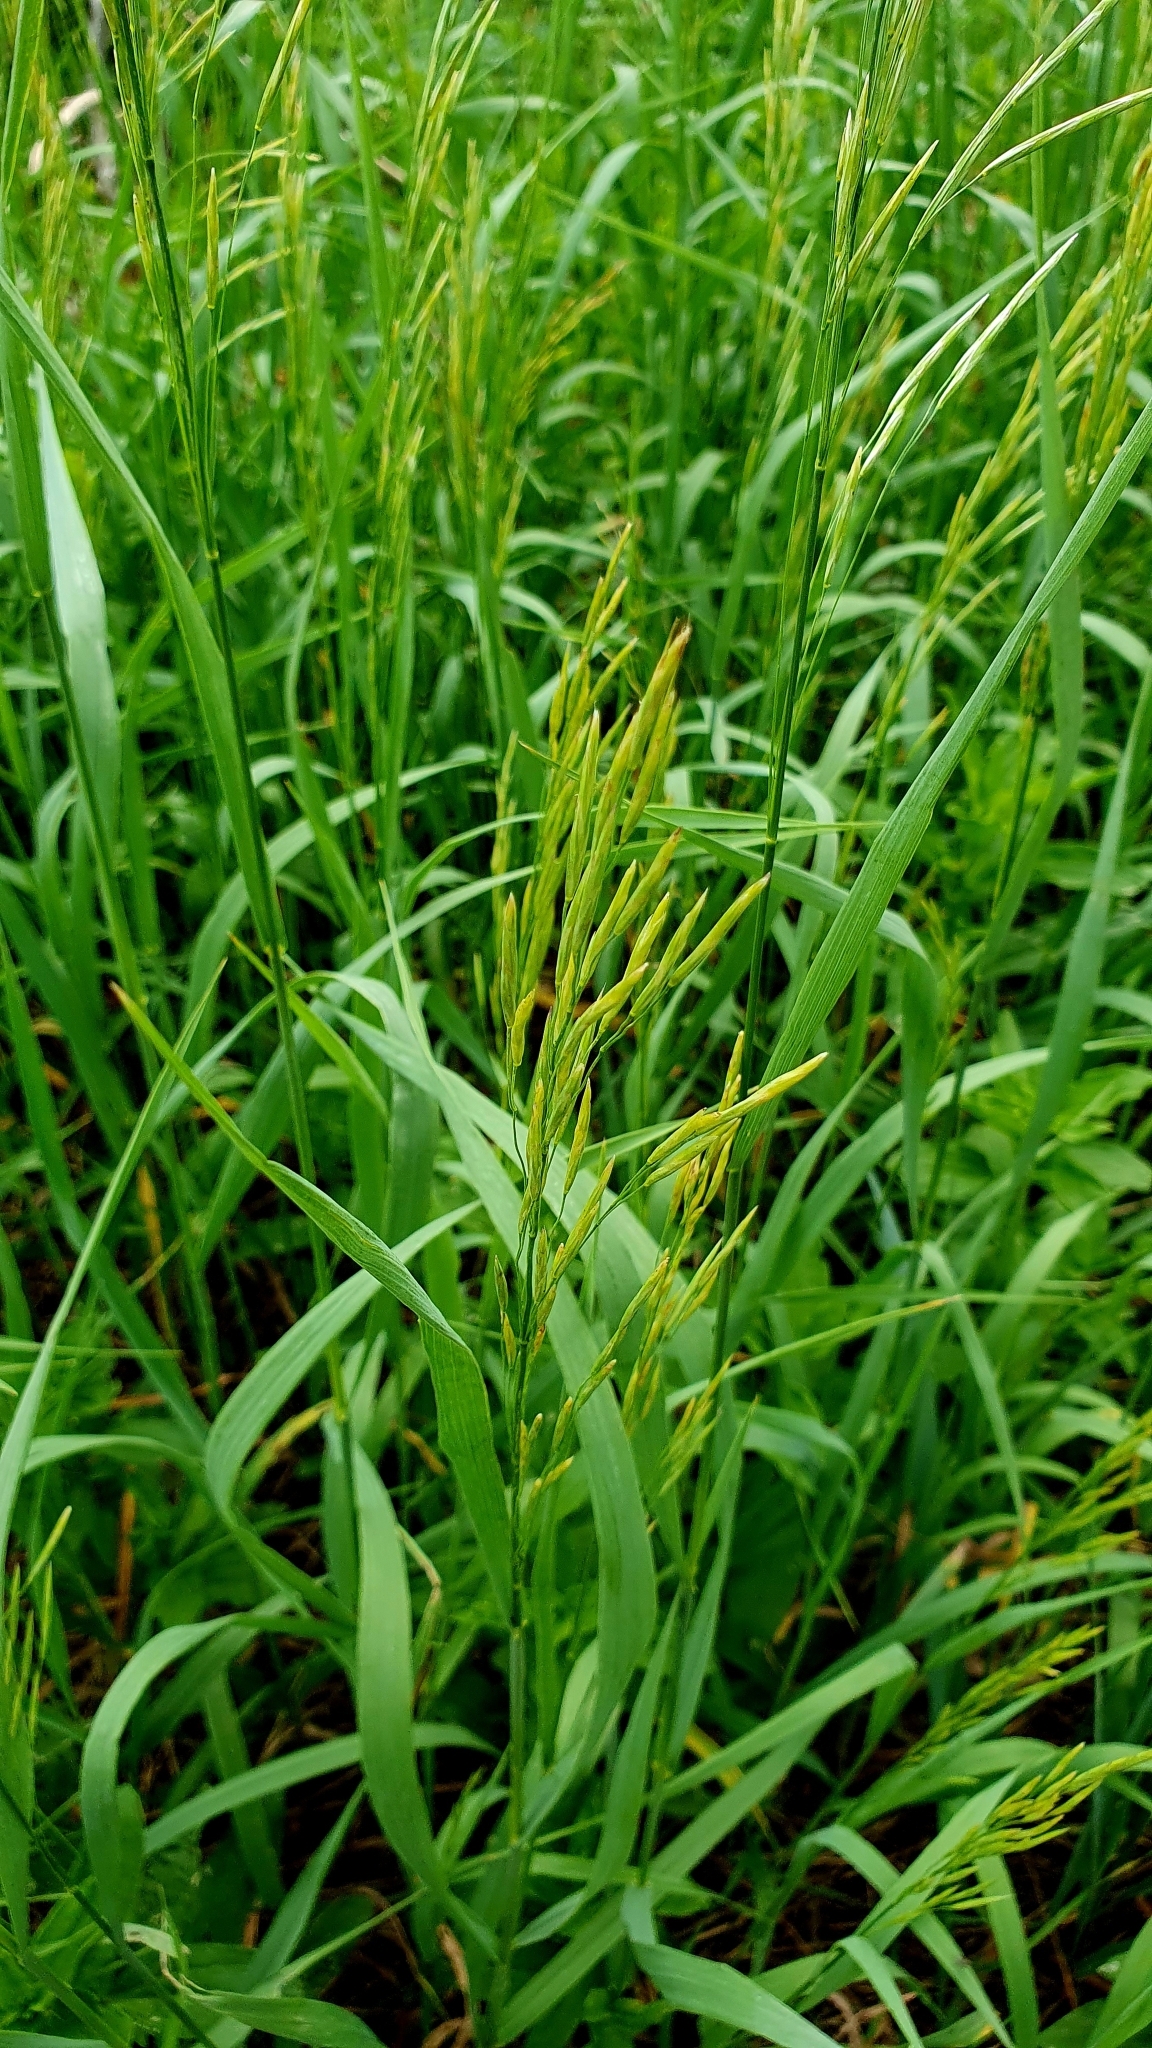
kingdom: Plantae
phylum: Tracheophyta
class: Liliopsida
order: Poales
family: Poaceae
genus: Bromus
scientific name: Bromus inermis
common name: Smooth brome
